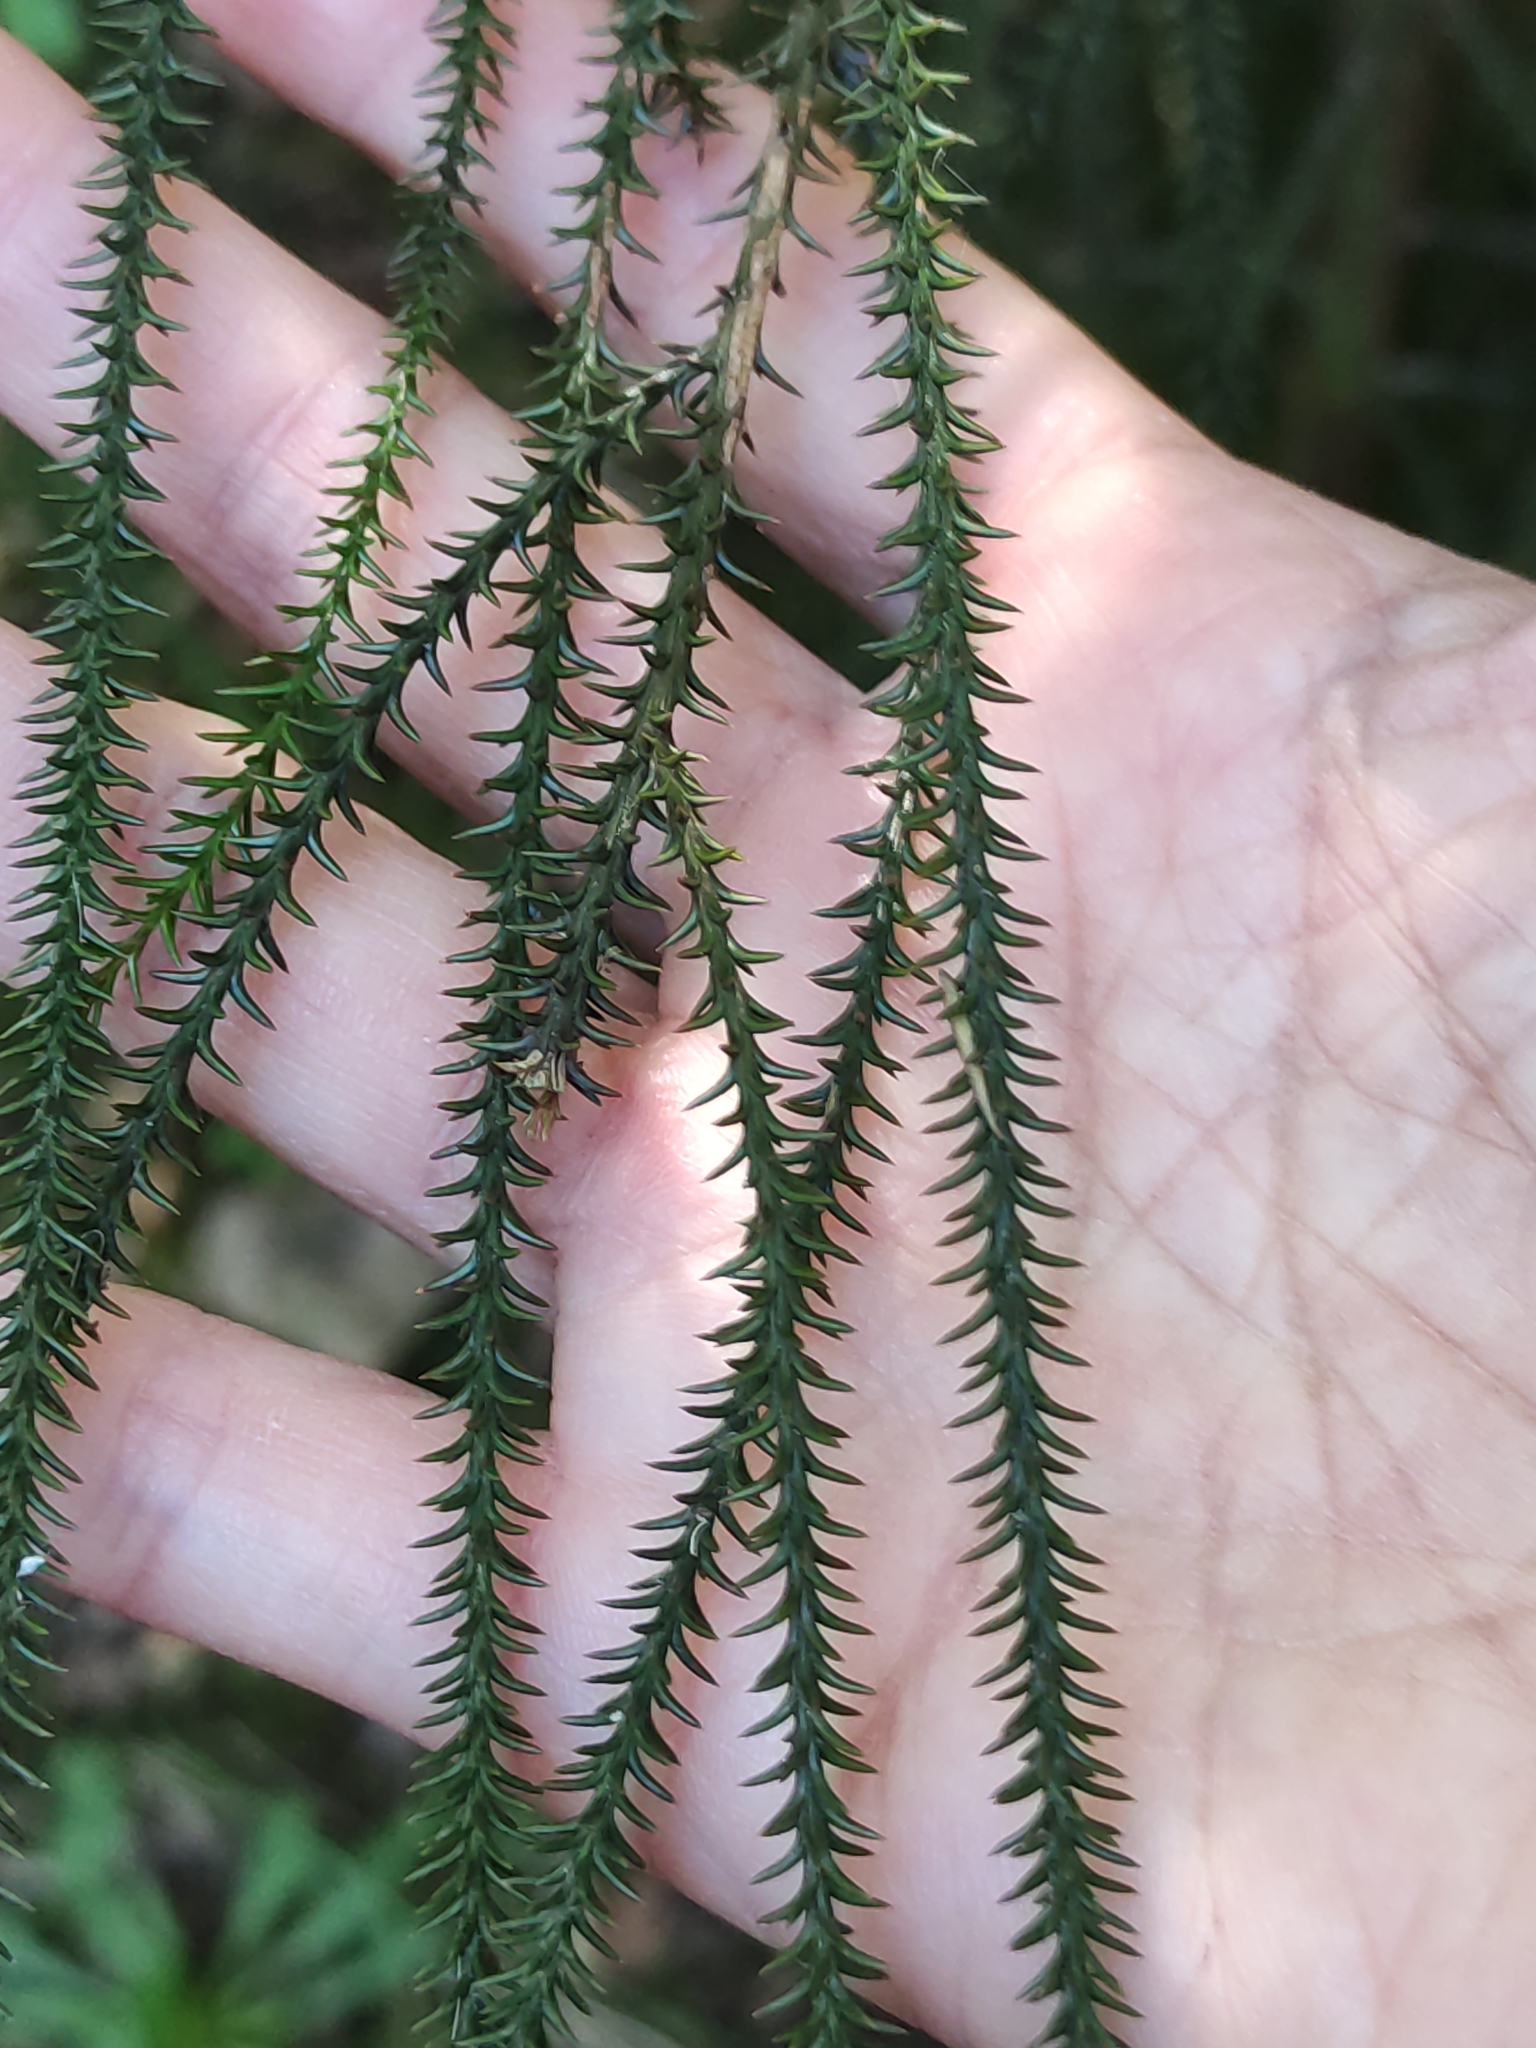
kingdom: Plantae
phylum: Tracheophyta
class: Pinopsida
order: Pinales
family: Podocarpaceae
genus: Dacrydium
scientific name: Dacrydium cupressinum
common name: Red pine
